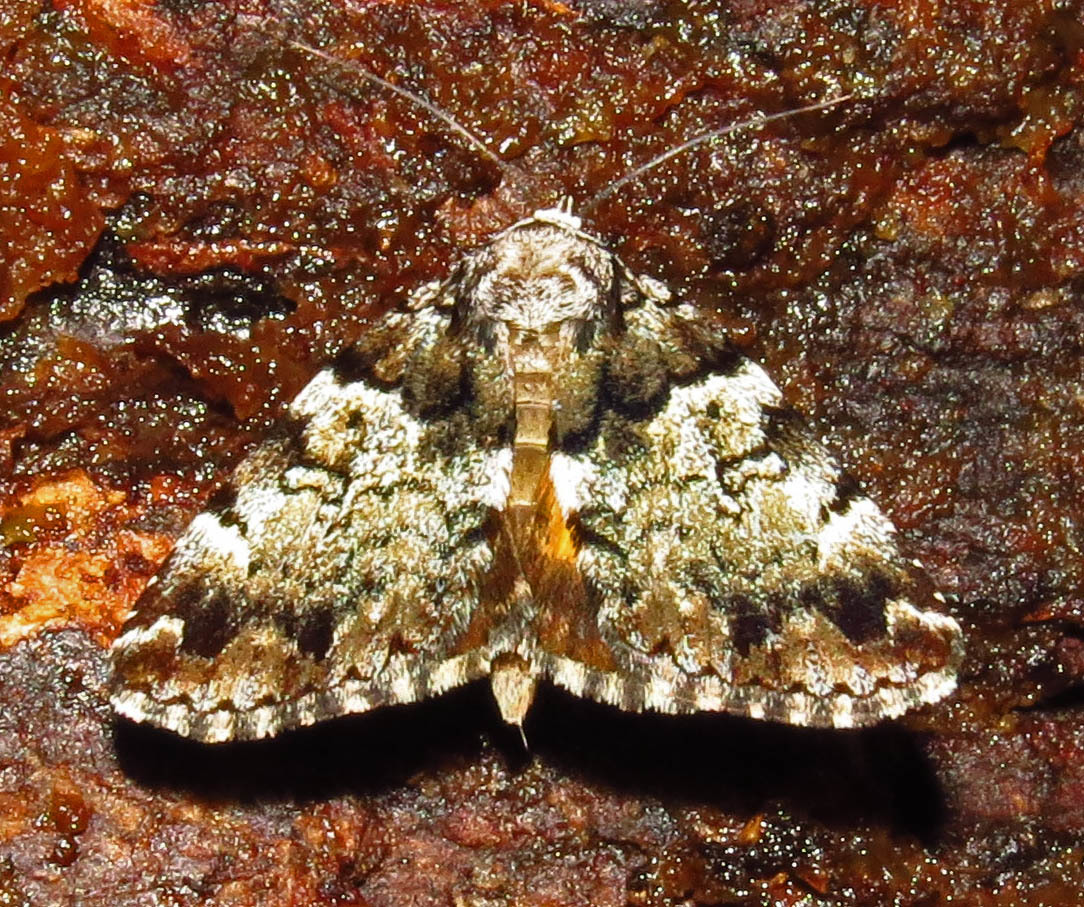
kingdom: Animalia
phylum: Arthropoda
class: Insecta
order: Lepidoptera
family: Erebidae
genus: Allotria
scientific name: Allotria elonympha
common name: False underwing
